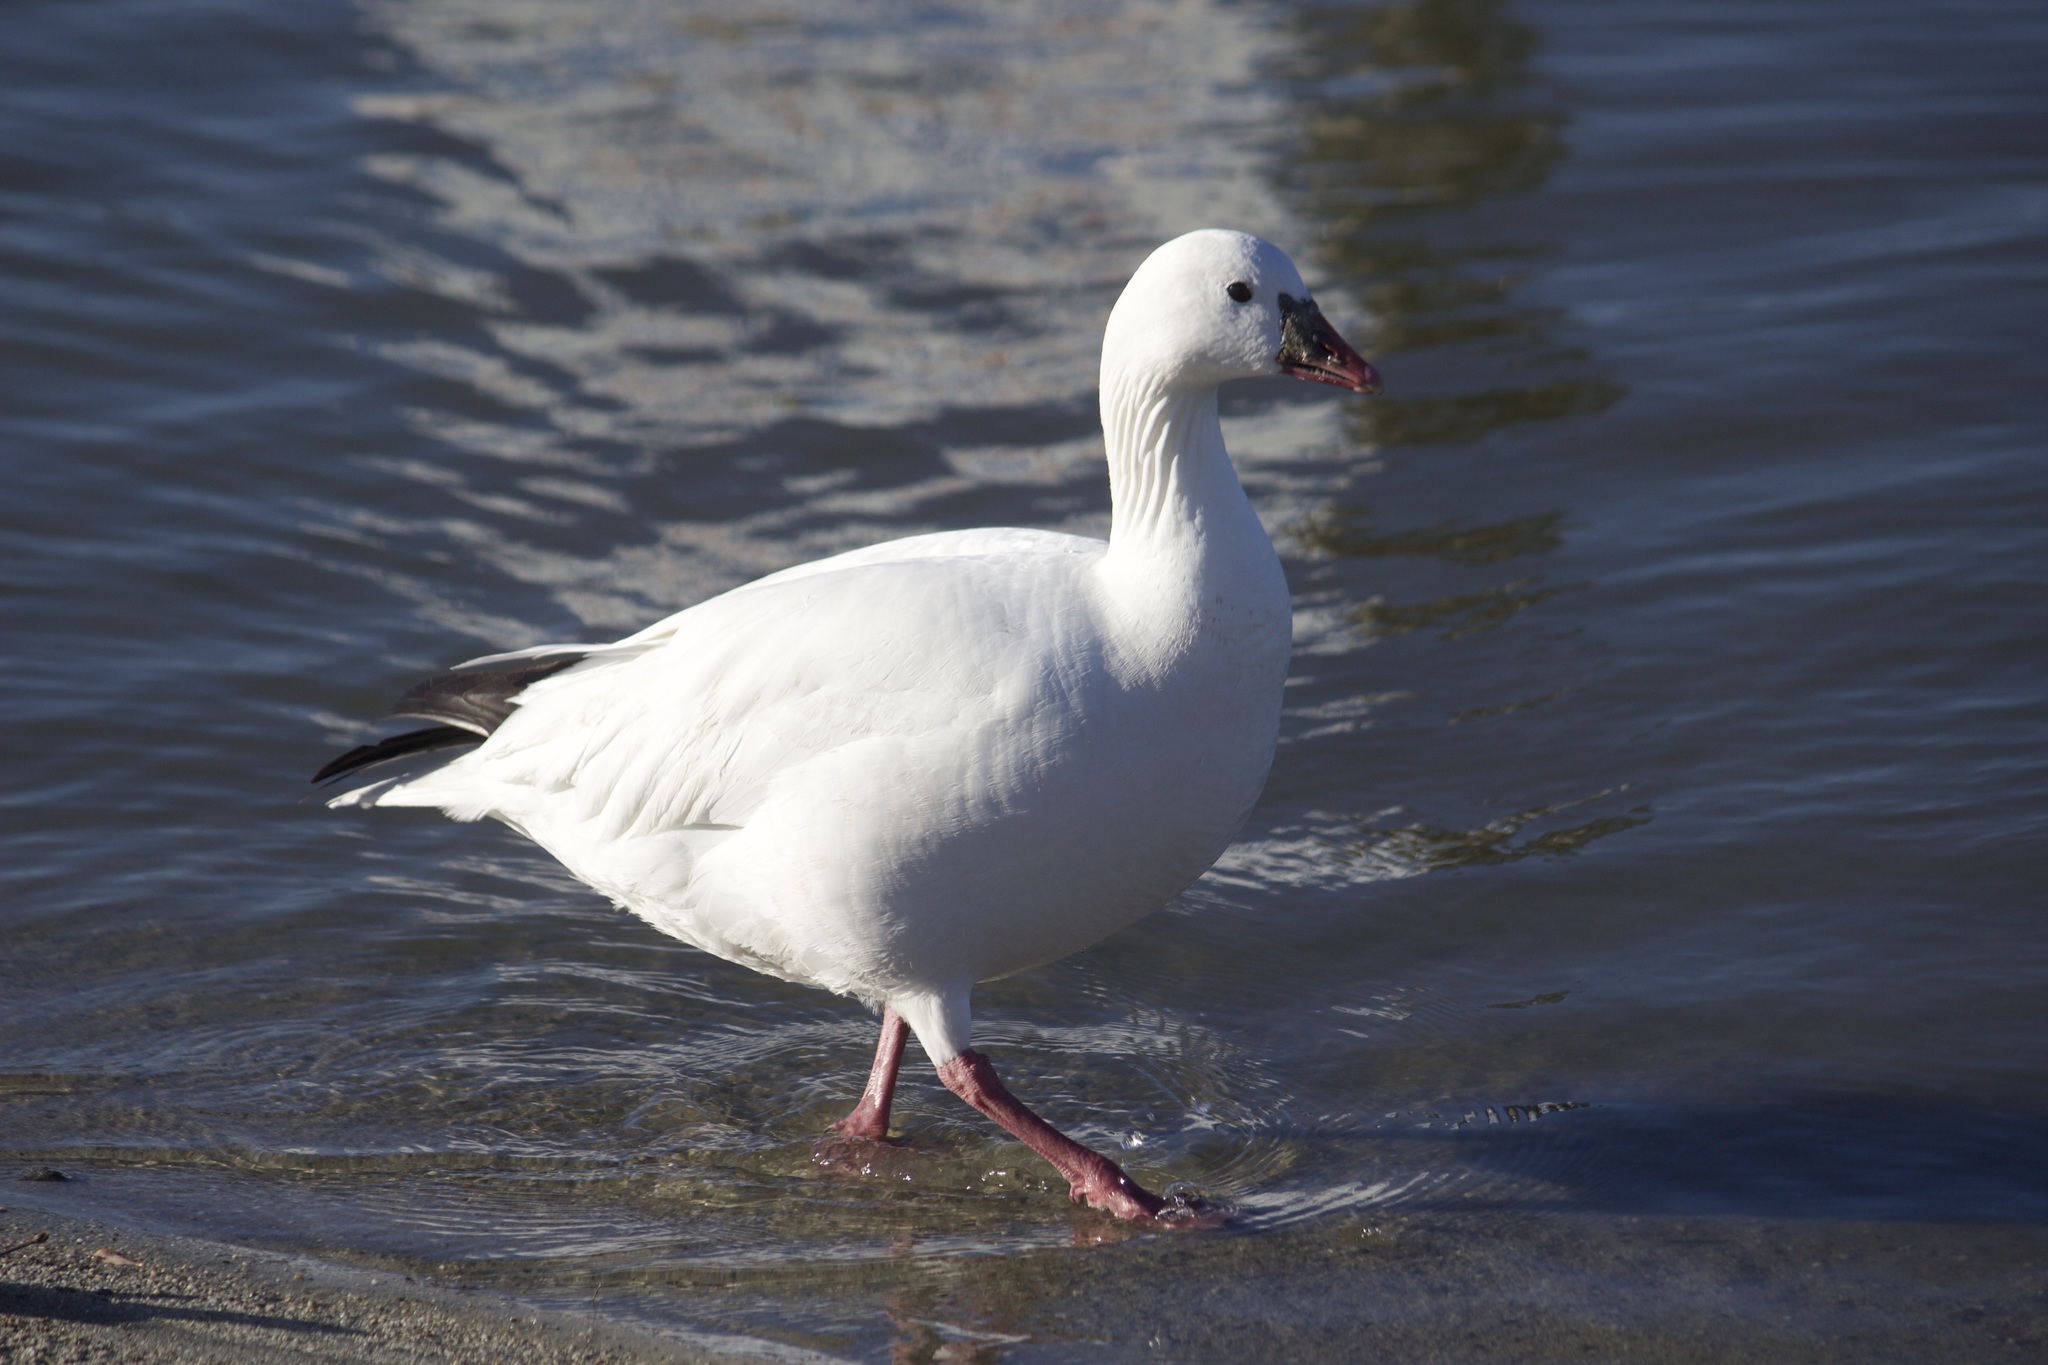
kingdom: Animalia
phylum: Chordata
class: Aves
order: Anseriformes
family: Anatidae
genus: Anser
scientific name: Anser rossii
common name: Ross's goose
